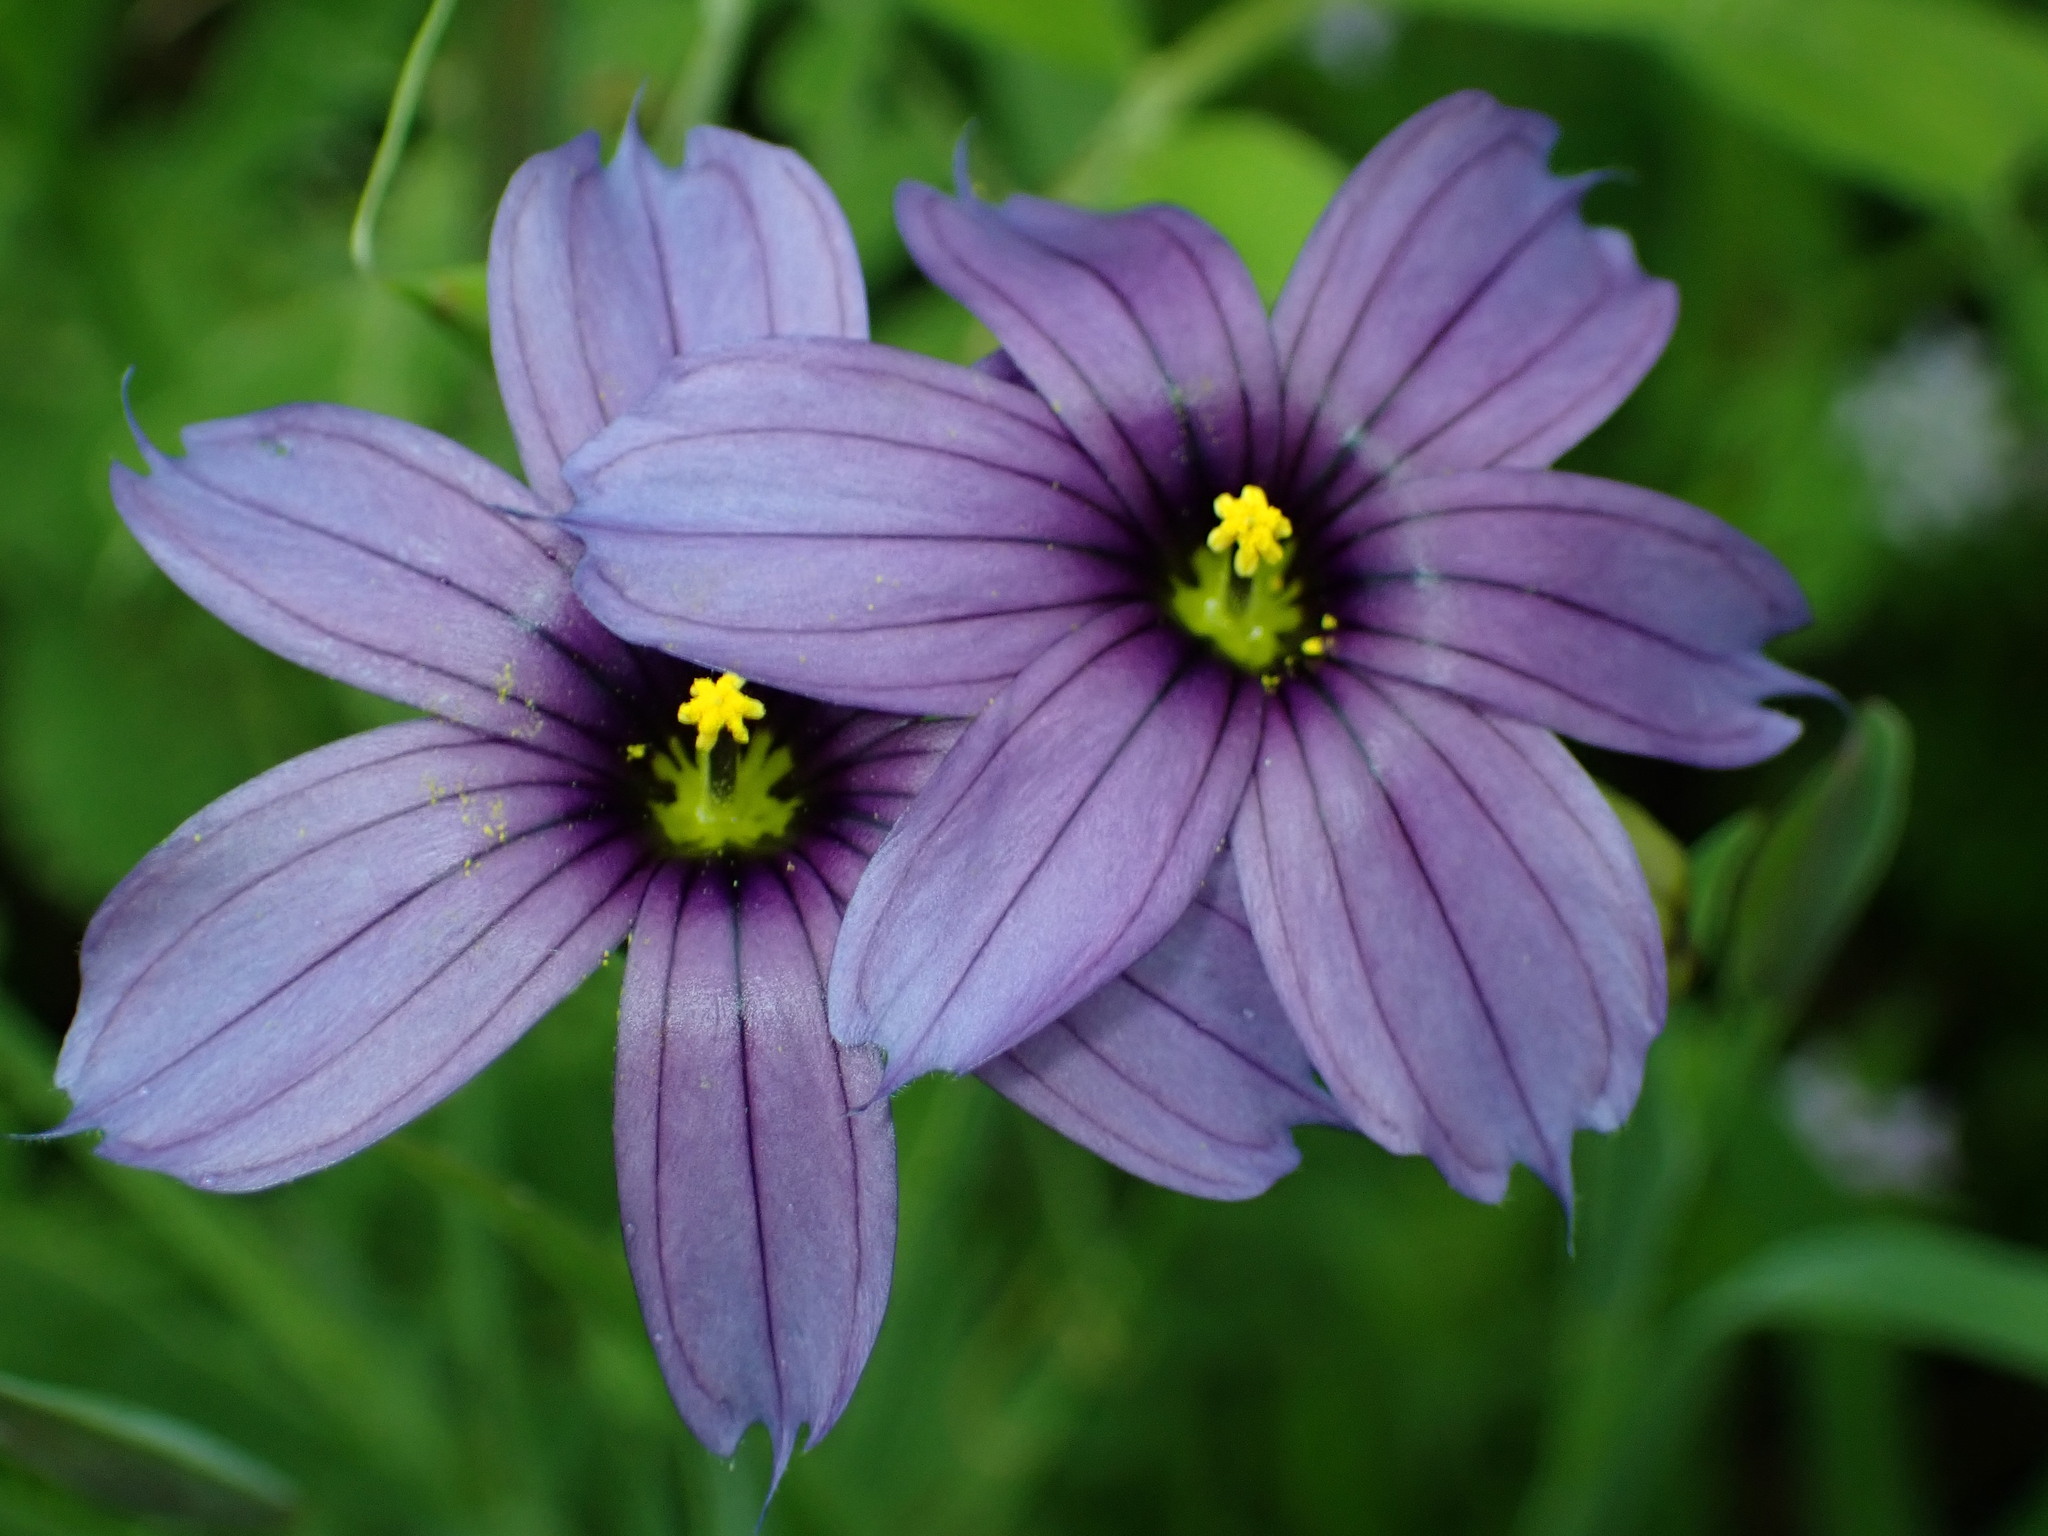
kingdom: Plantae
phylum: Tracheophyta
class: Liliopsida
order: Asparagales
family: Iridaceae
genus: Sisyrinchium
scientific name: Sisyrinchium bellum
